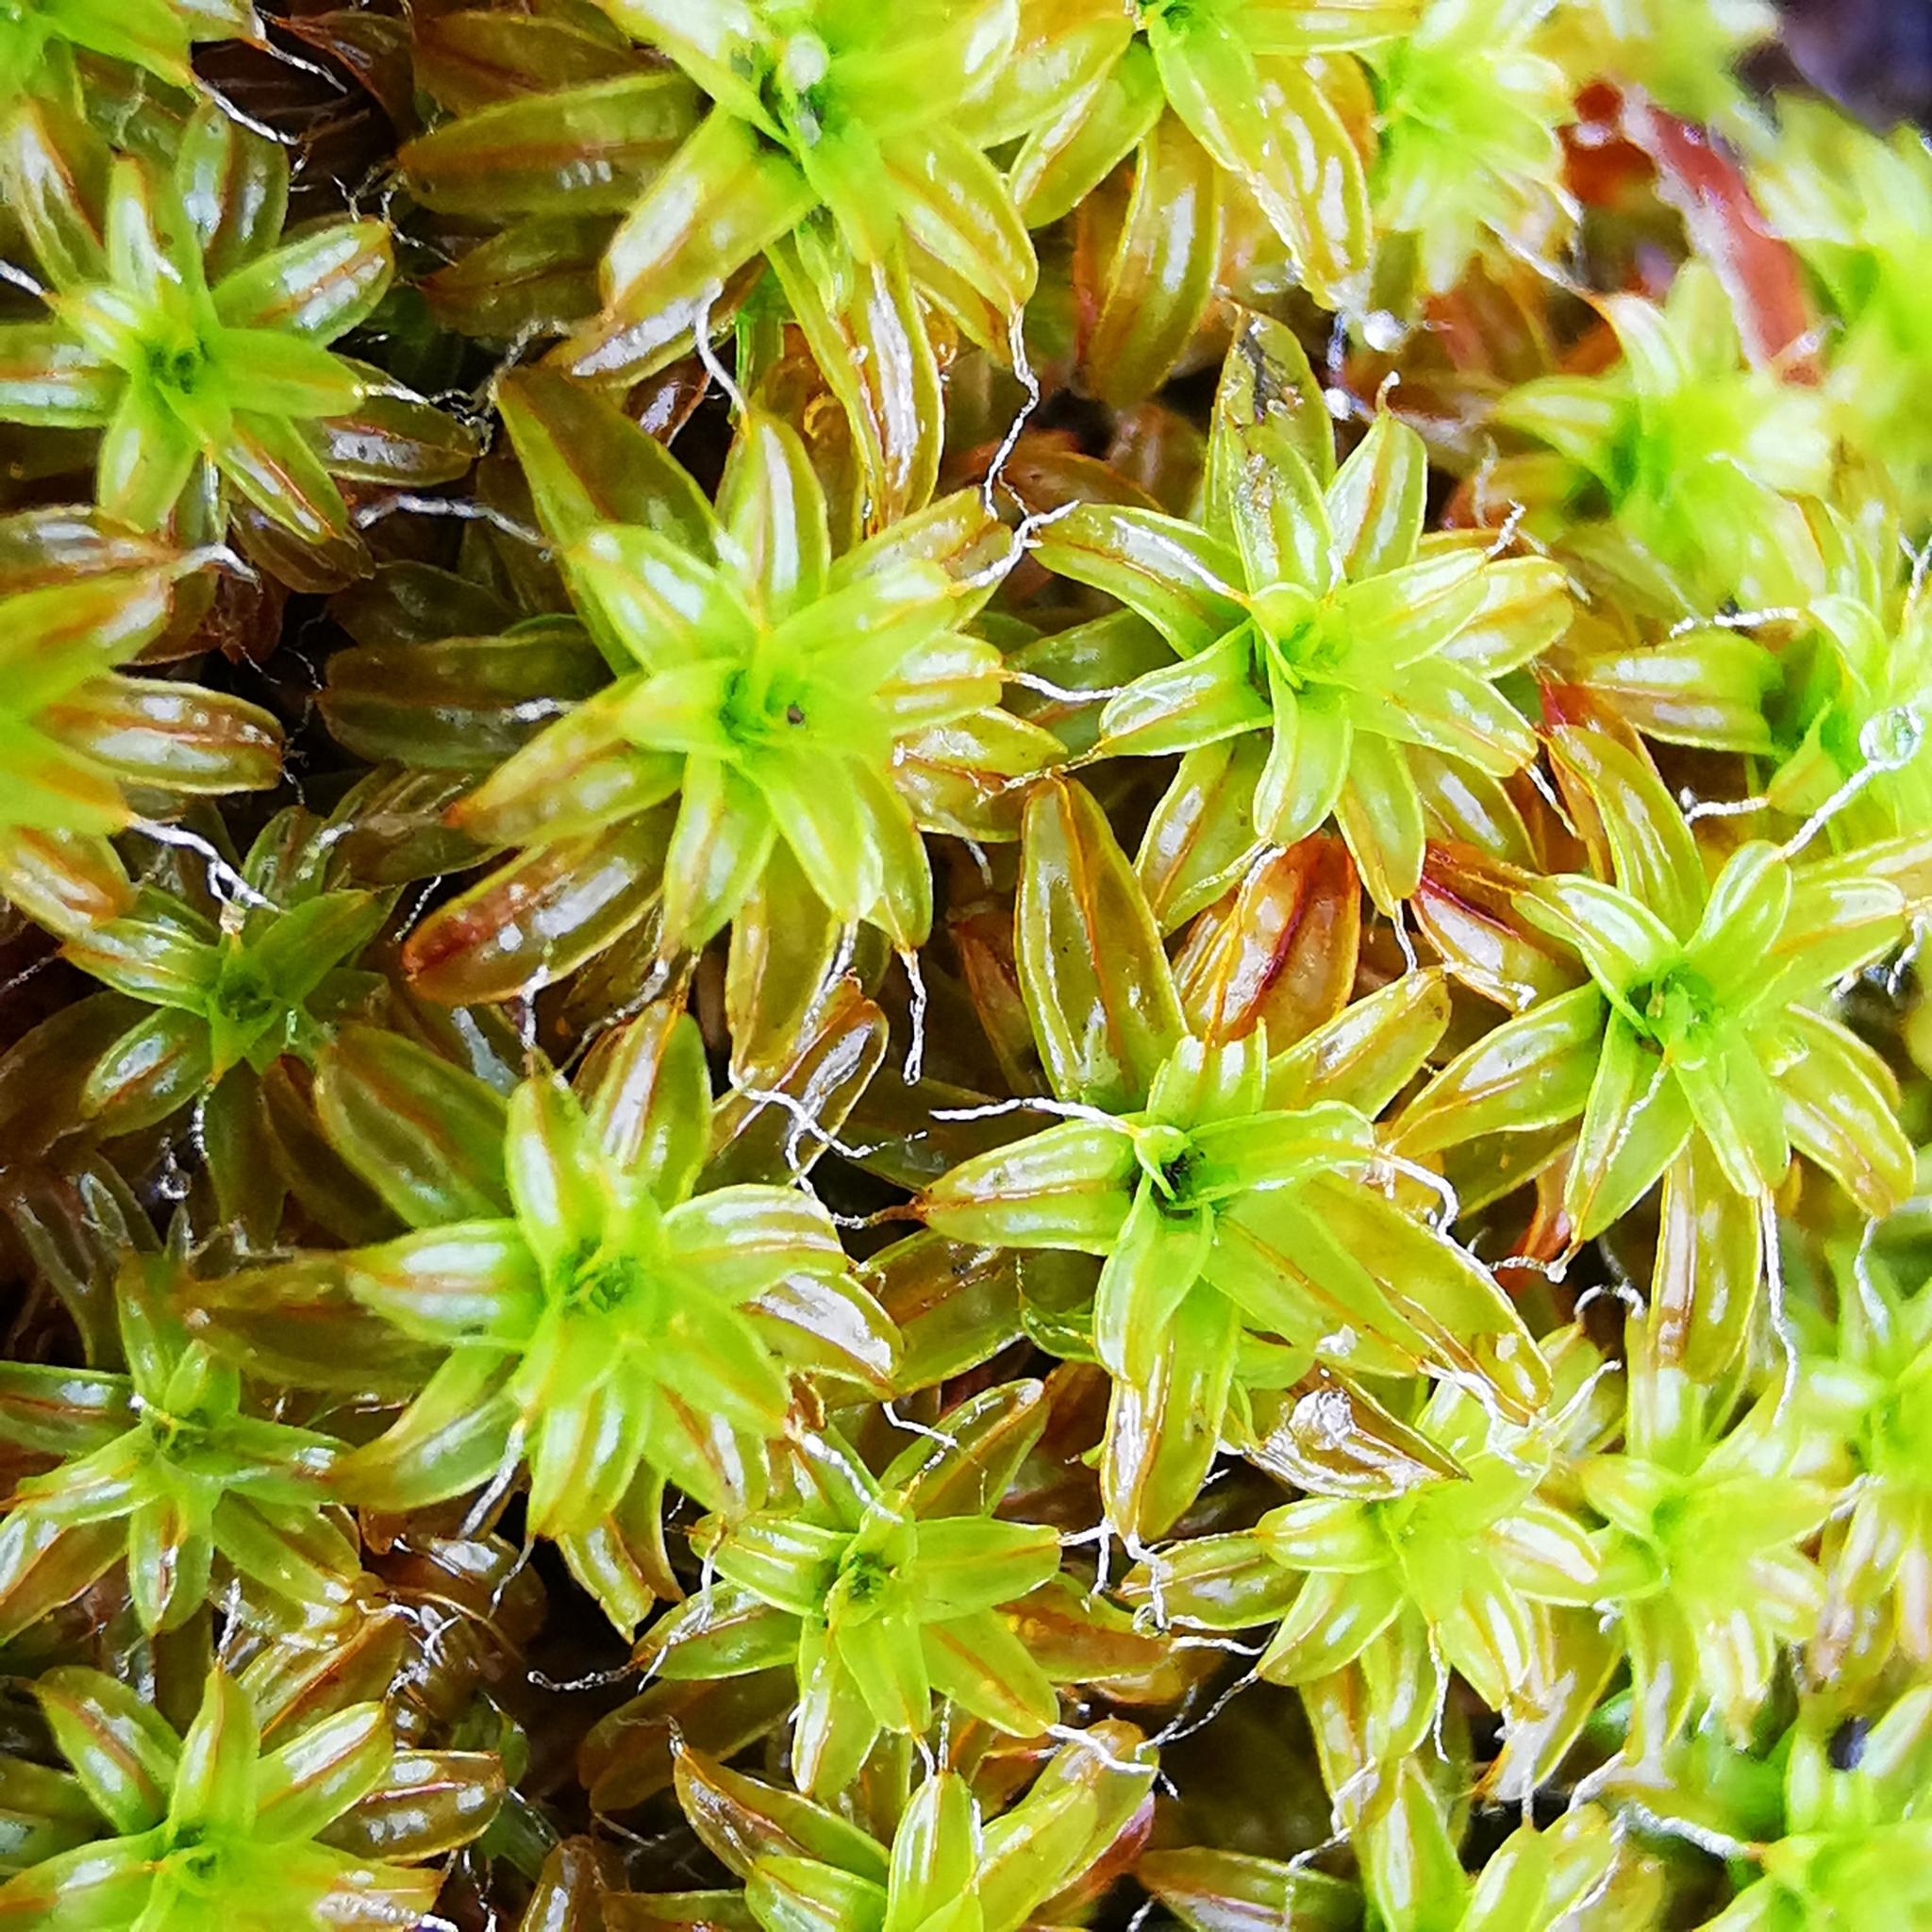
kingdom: Plantae
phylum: Bryophyta
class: Bryopsida
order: Pottiales
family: Pottiaceae
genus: Syntrichia
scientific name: Syntrichia ruralis
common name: Sidewalk screw moss
